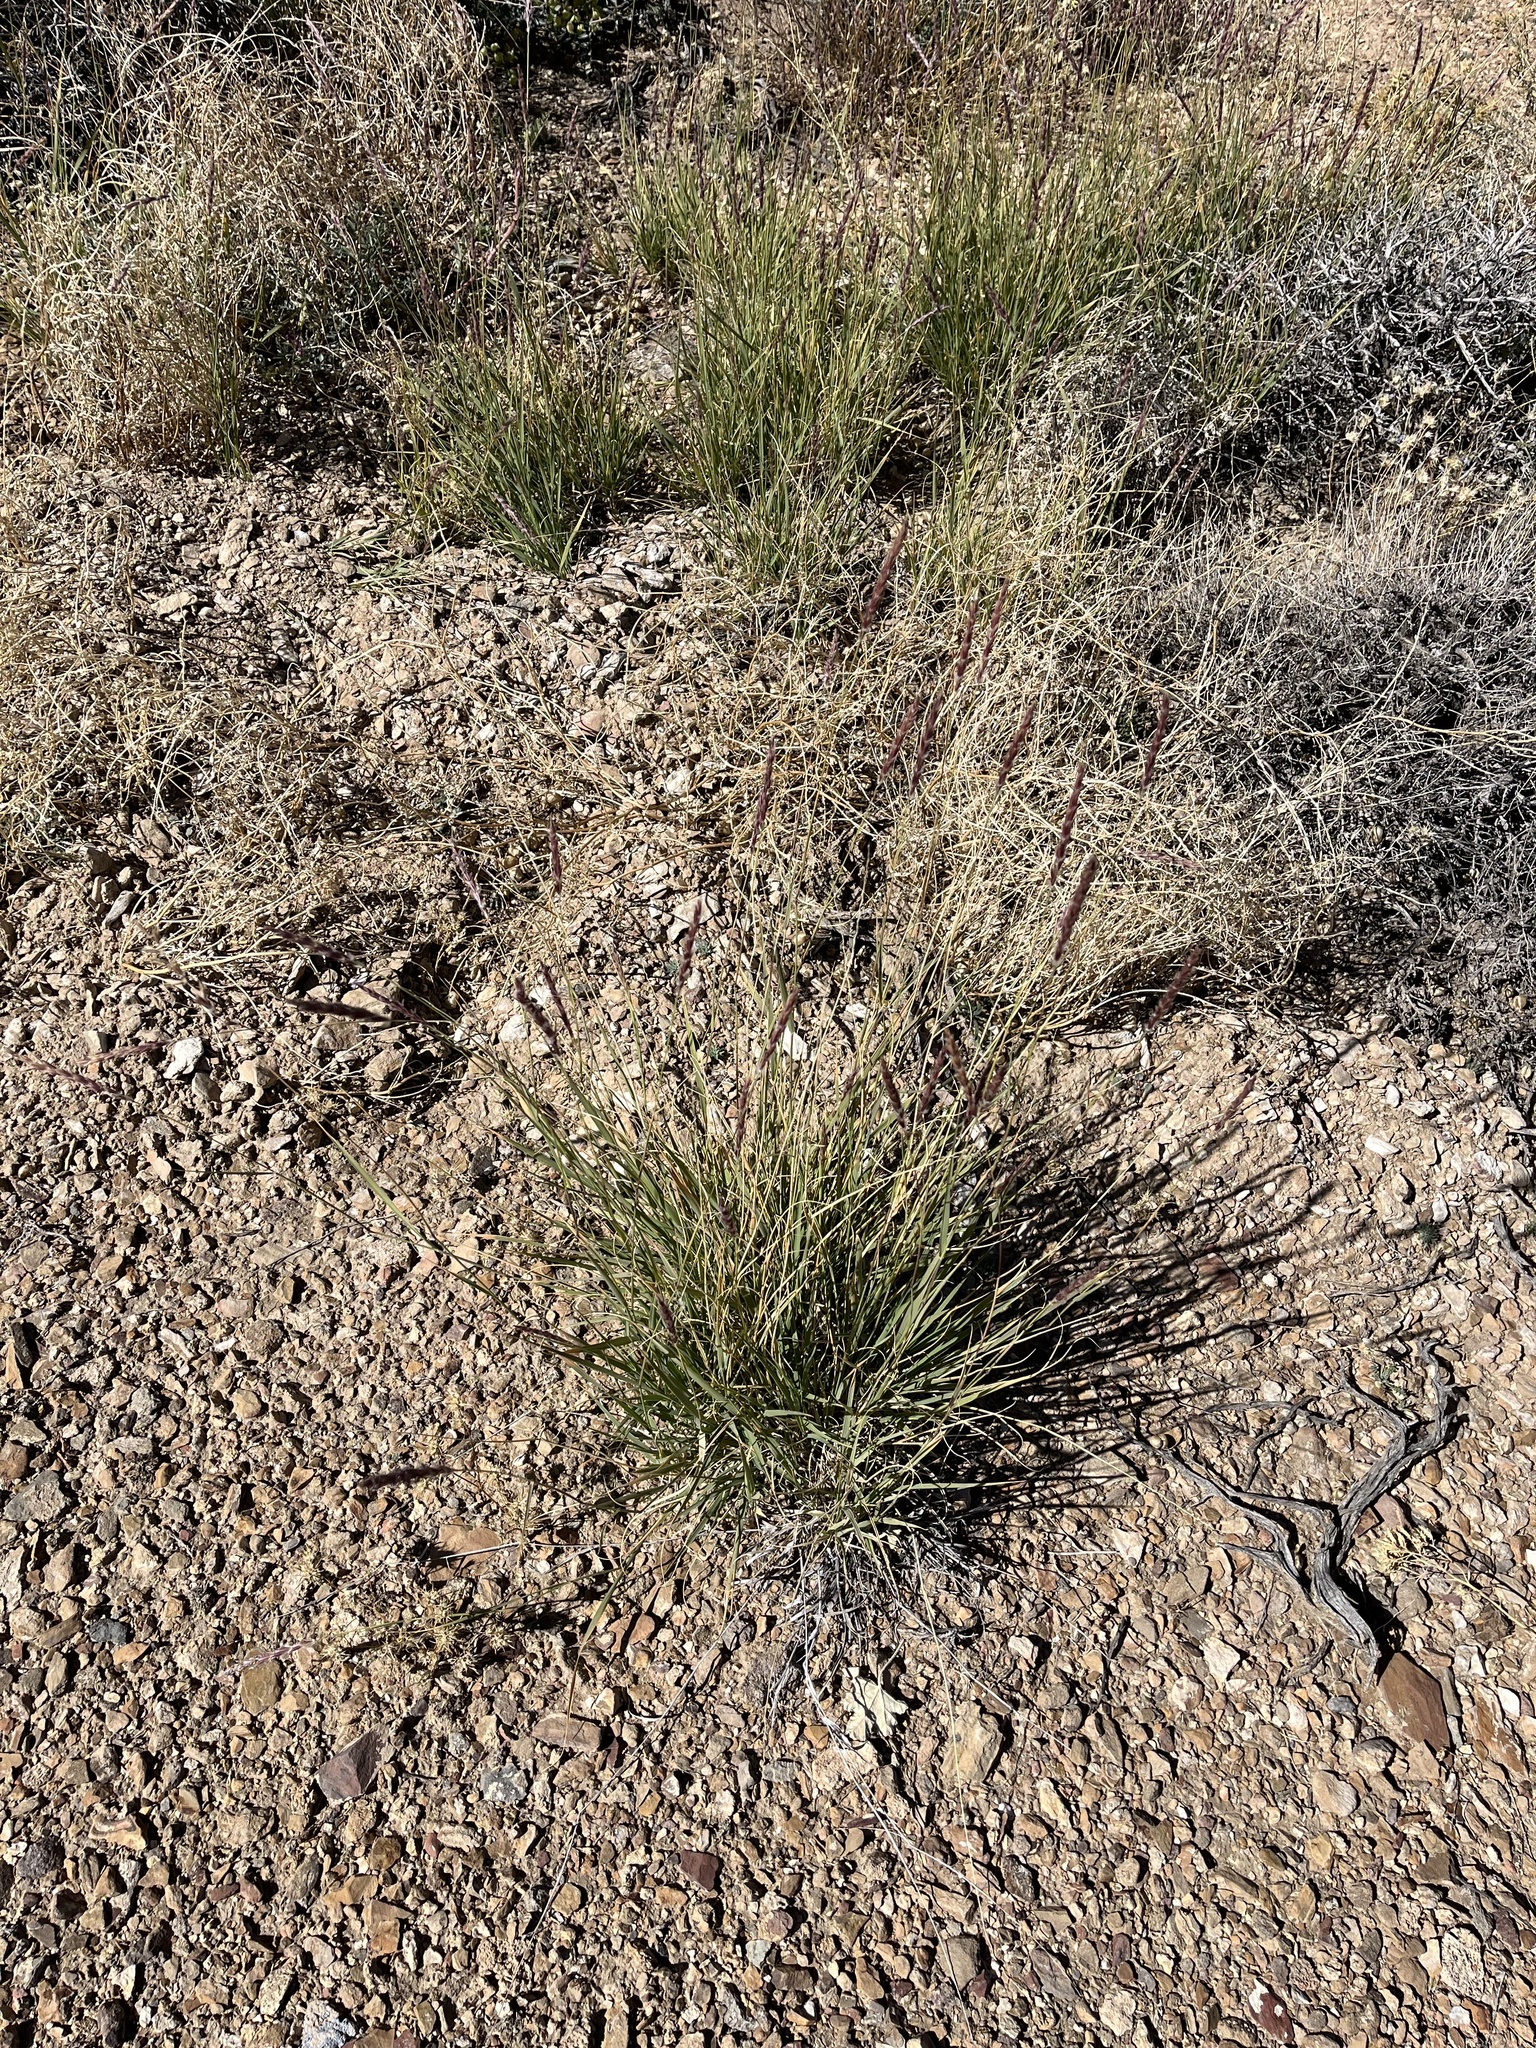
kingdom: Plantae
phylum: Tracheophyta
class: Liliopsida
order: Poales
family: Poaceae
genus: Hilaria
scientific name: Hilaria jamesii
